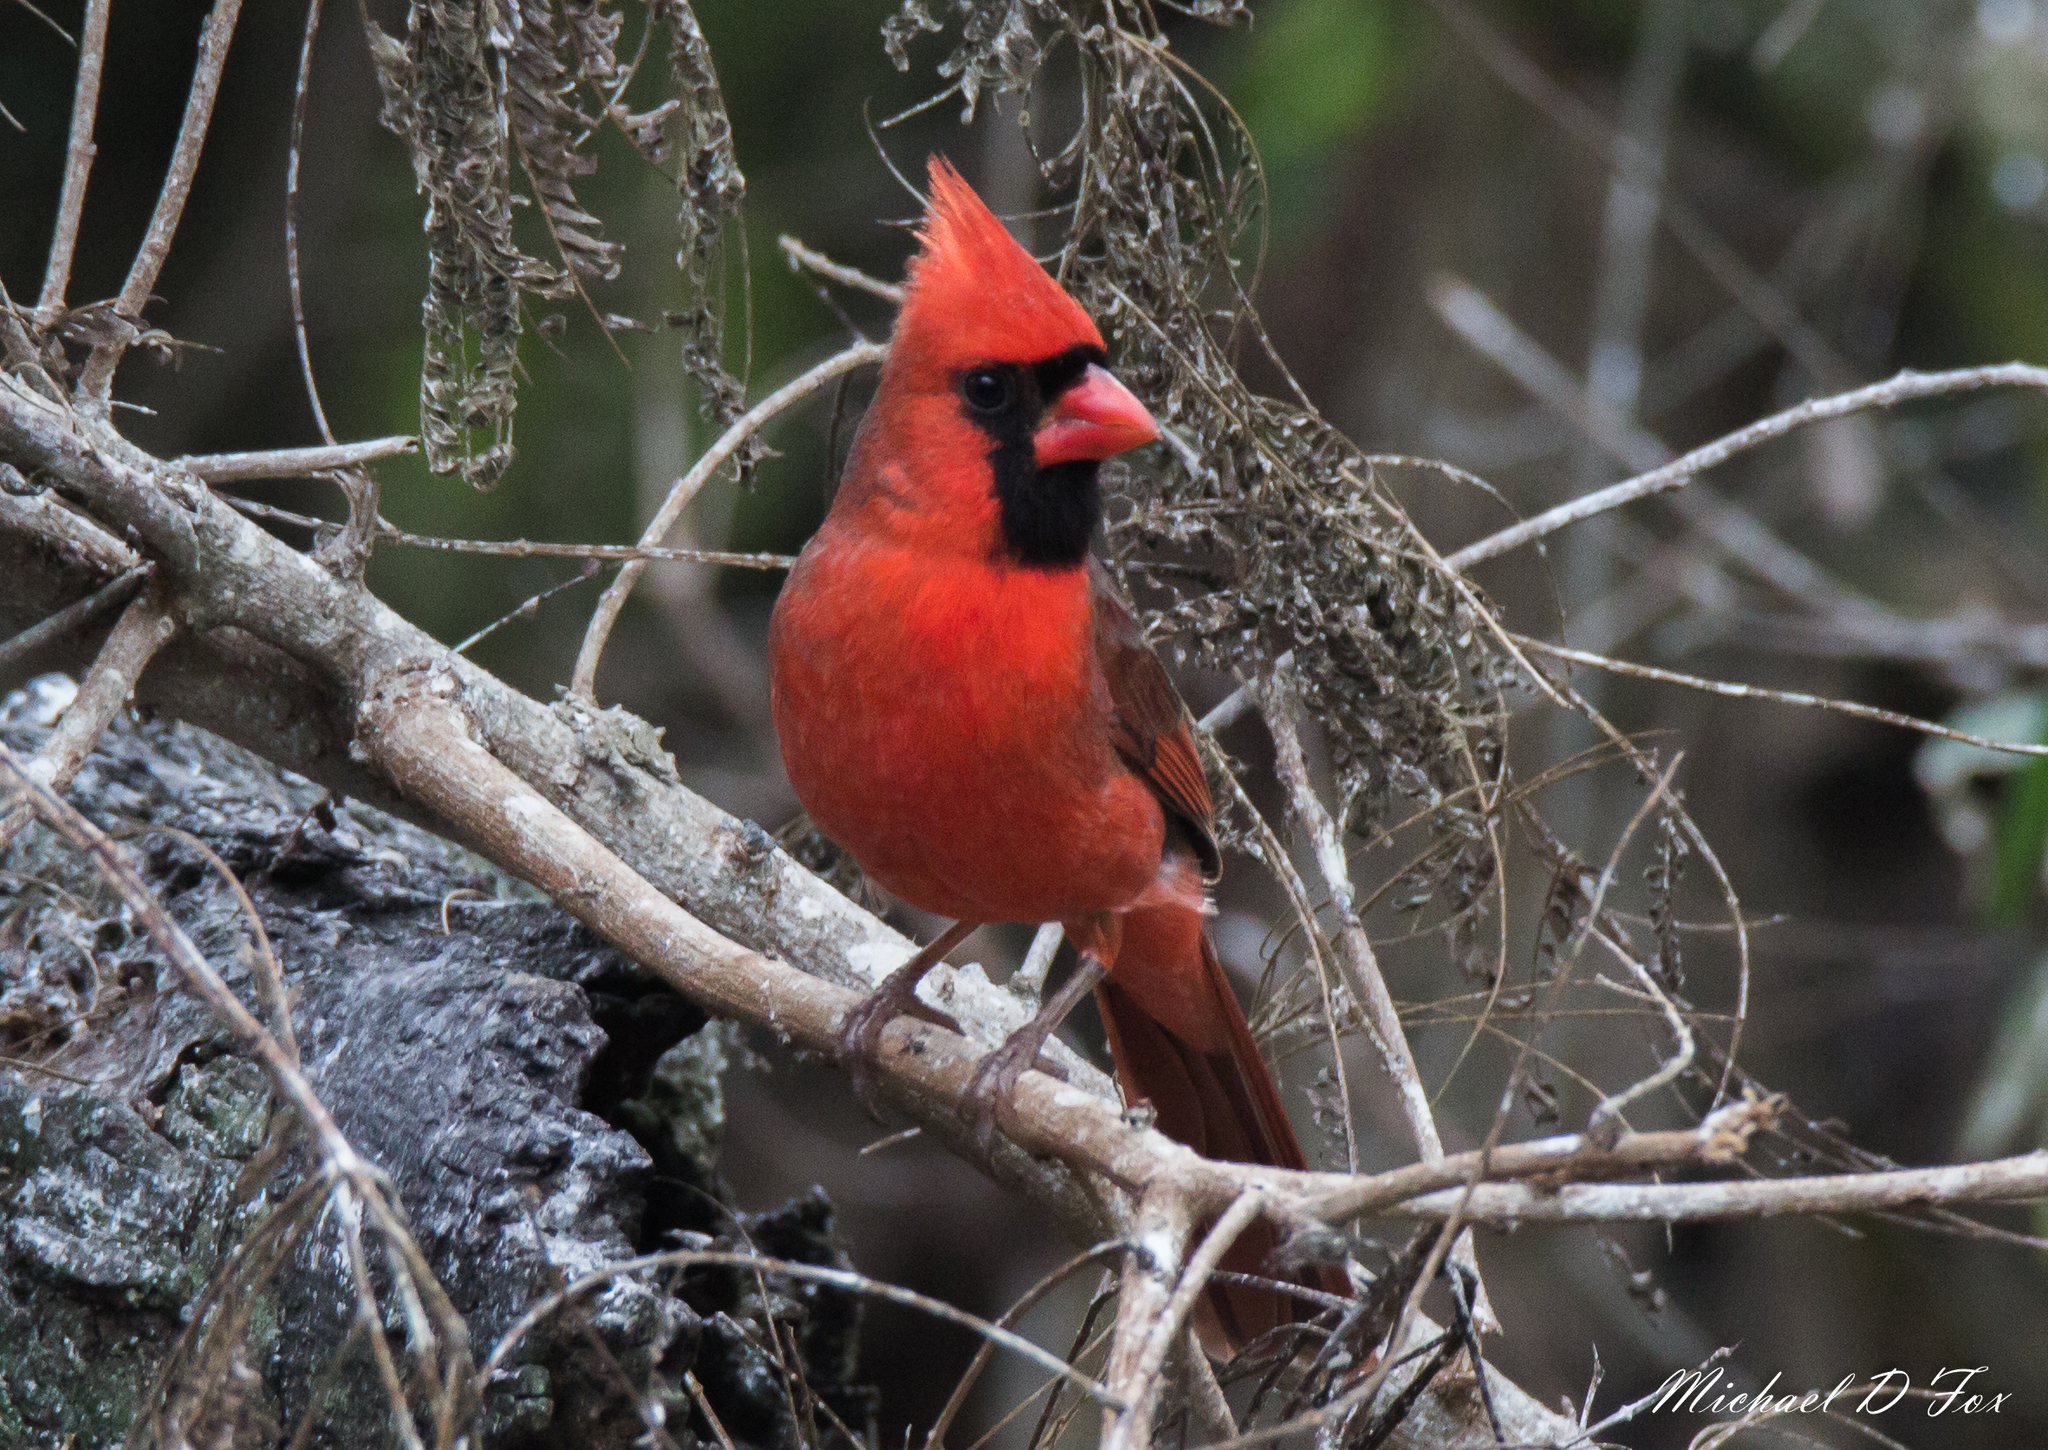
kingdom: Animalia
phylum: Chordata
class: Aves
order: Passeriformes
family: Cardinalidae
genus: Cardinalis
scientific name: Cardinalis cardinalis
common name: Northern cardinal
